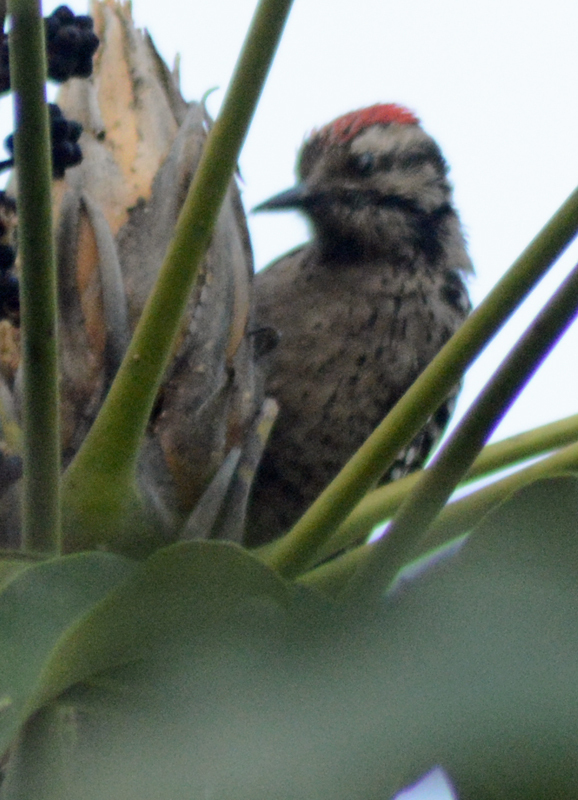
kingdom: Animalia
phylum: Chordata
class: Aves
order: Piciformes
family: Picidae
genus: Dryobates
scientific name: Dryobates scalaris
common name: Ladder-backed woodpecker
